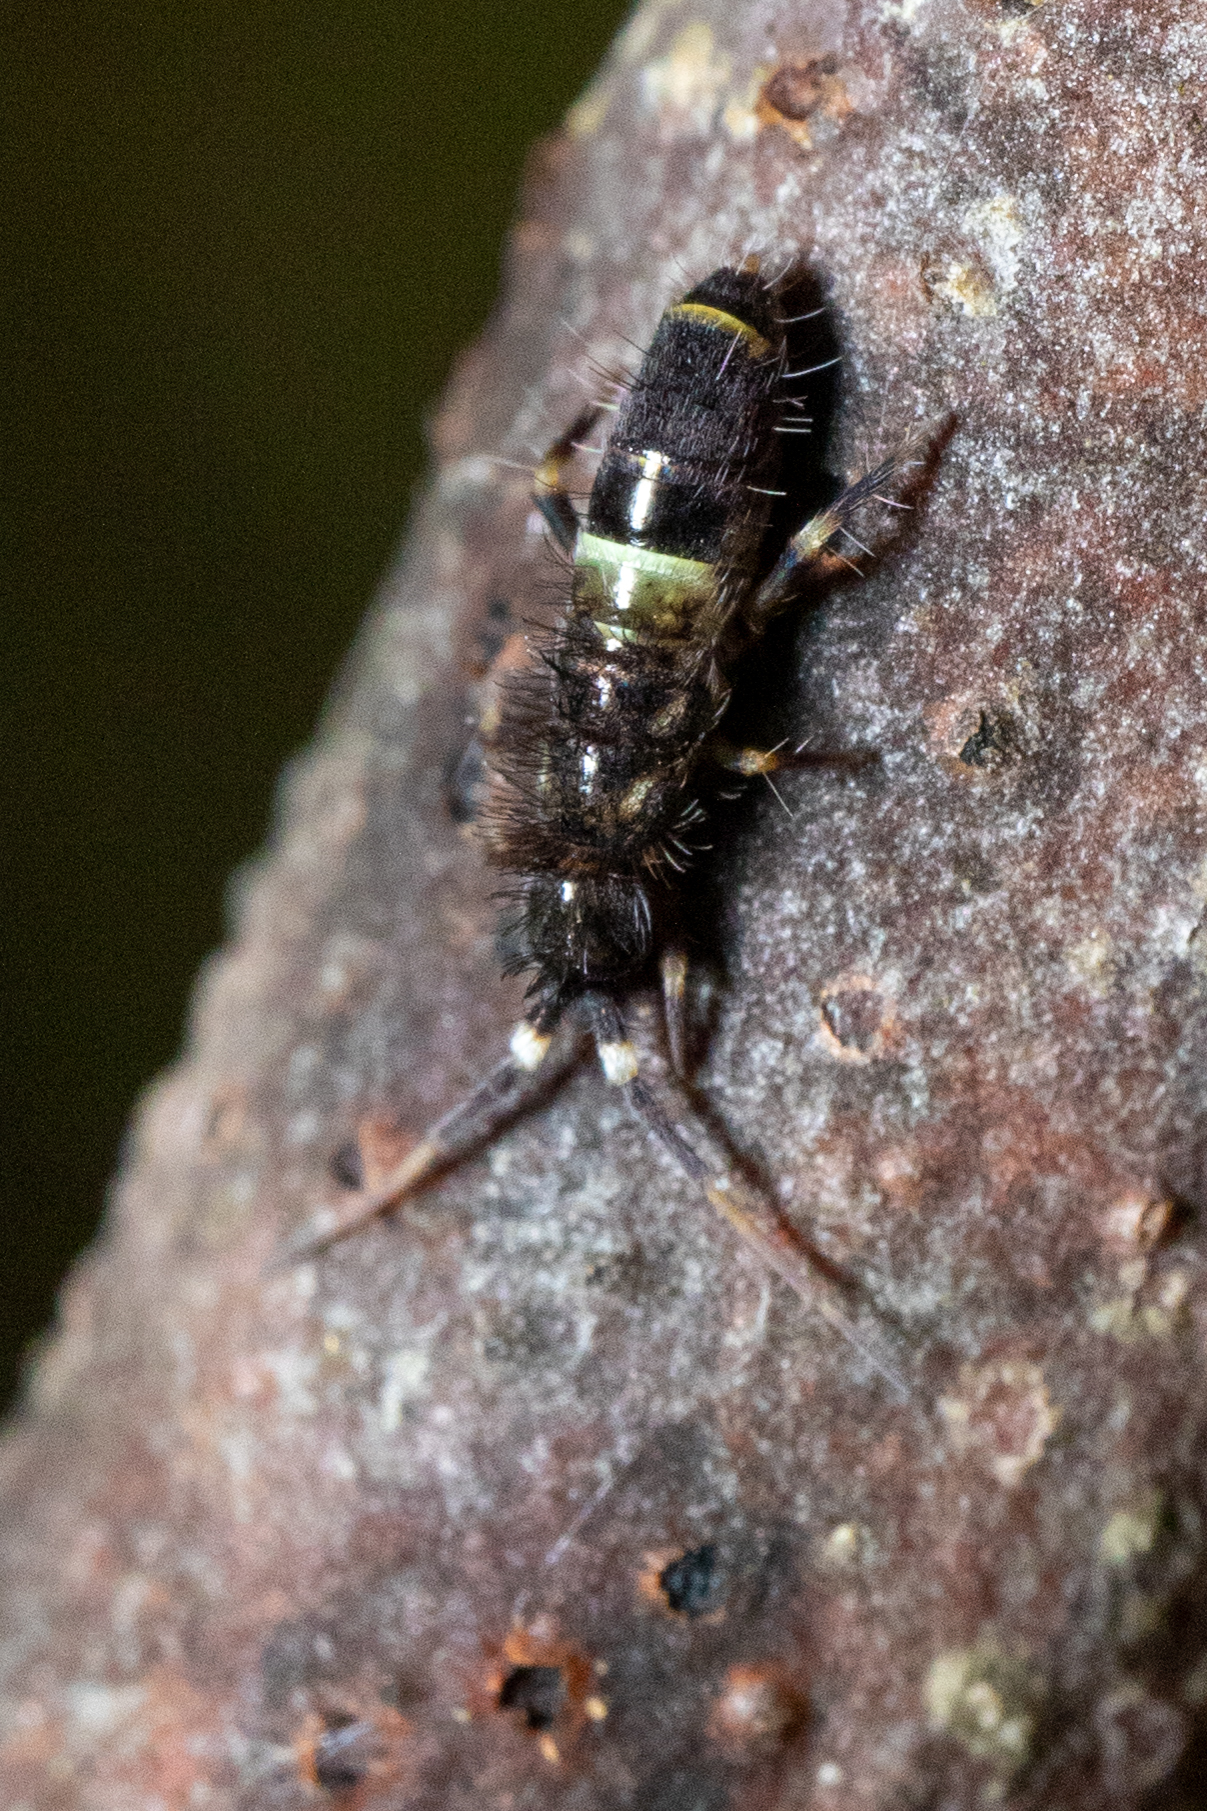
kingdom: Animalia
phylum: Arthropoda
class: Collembola
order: Entomobryomorpha
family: Orchesellidae
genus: Orchesella
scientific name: Orchesella cincta
